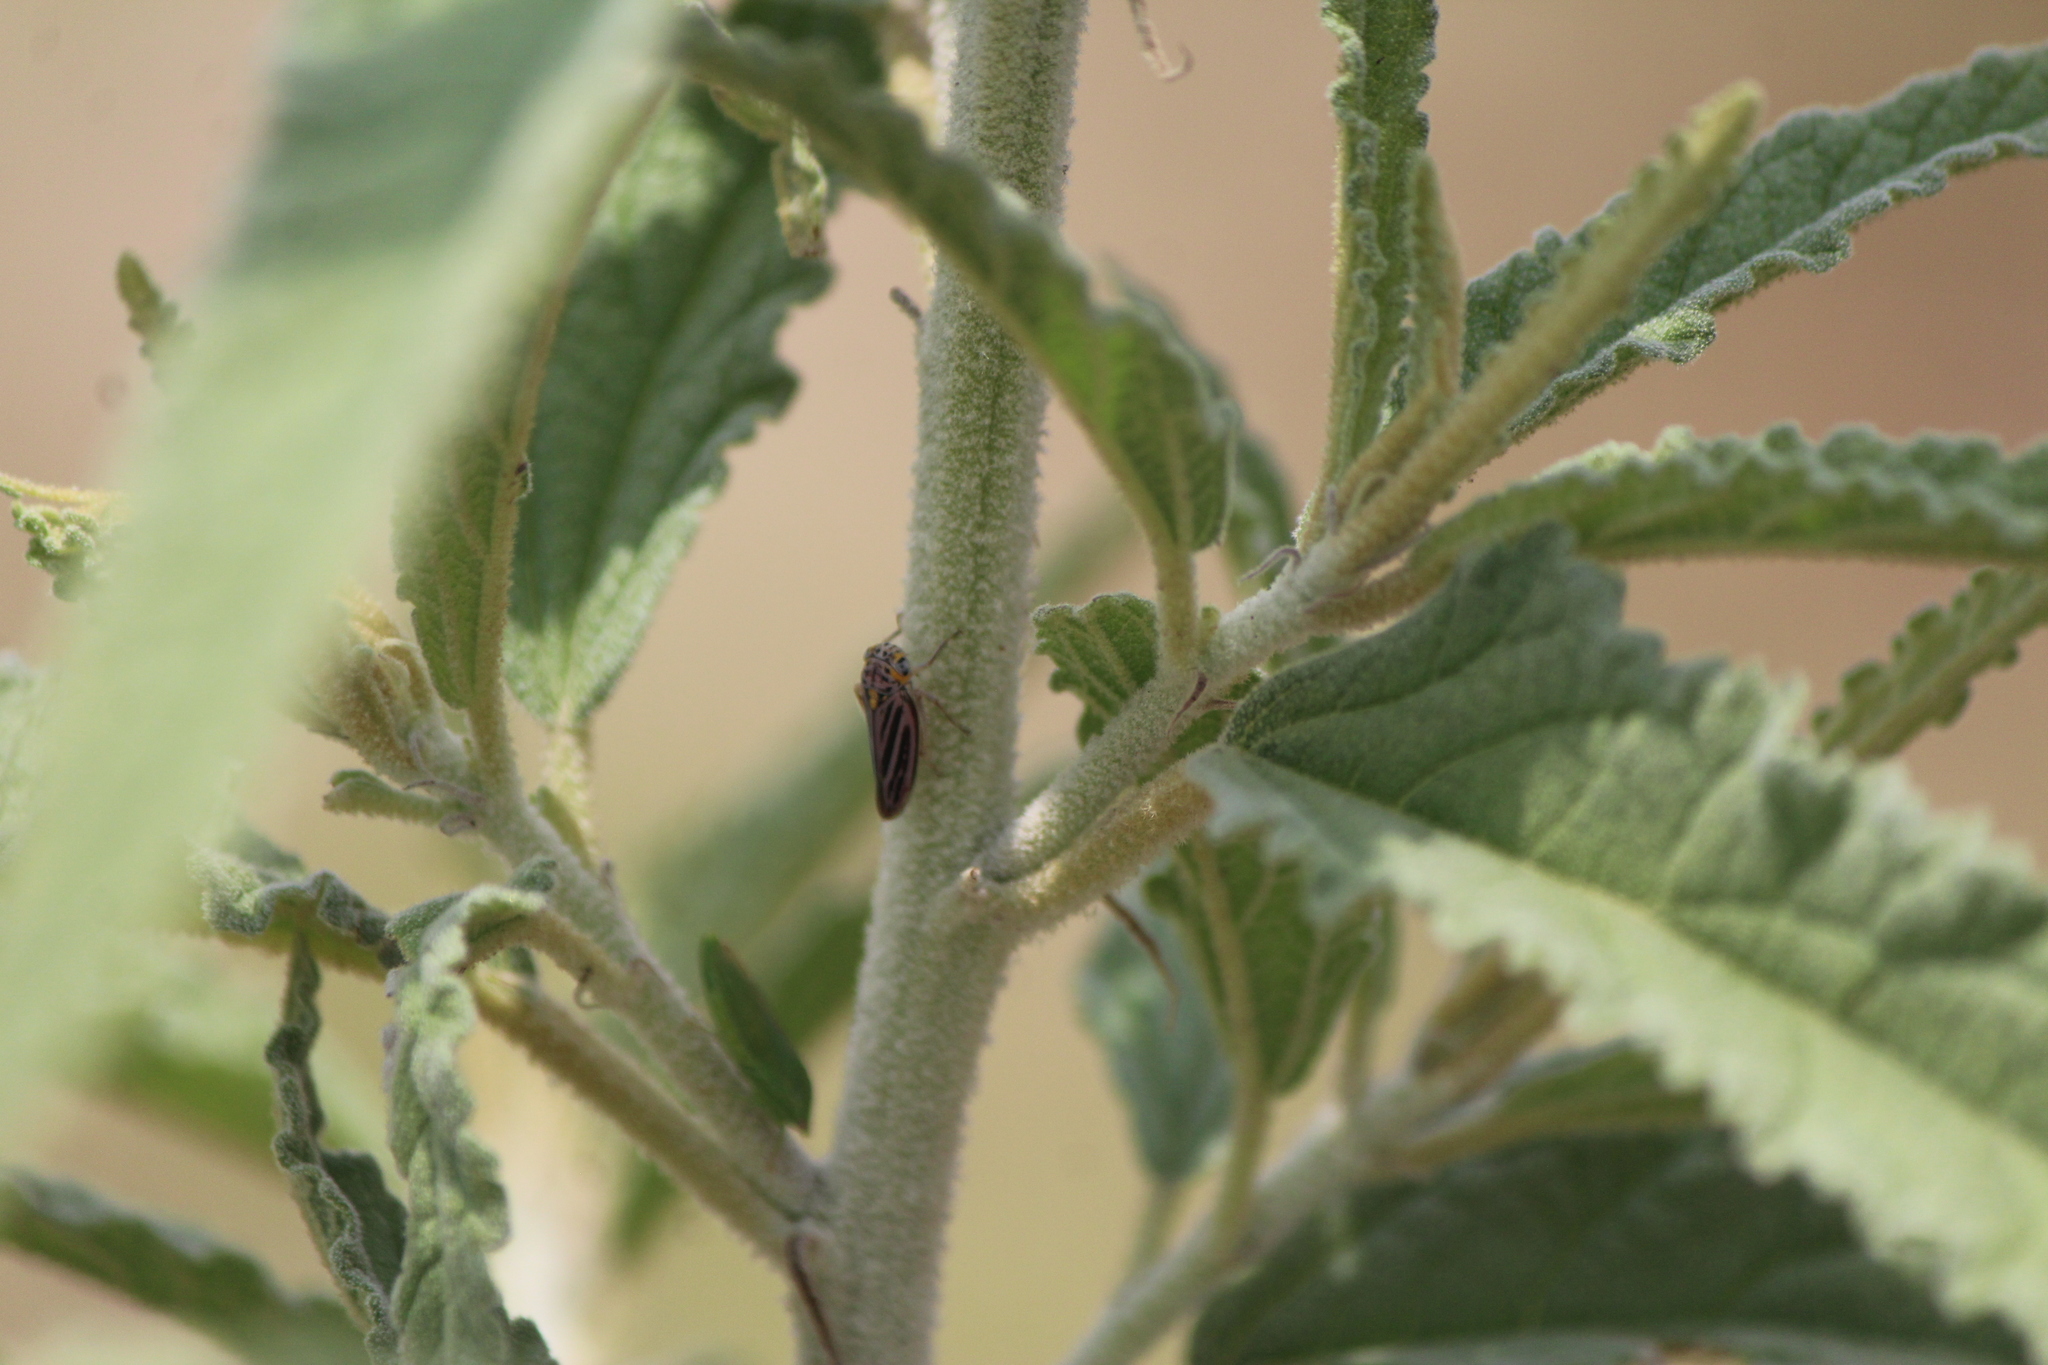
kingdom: Animalia
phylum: Arthropoda
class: Insecta
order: Hemiptera
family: Cicadellidae
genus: Graphocephala
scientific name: Graphocephala nigrifascia
